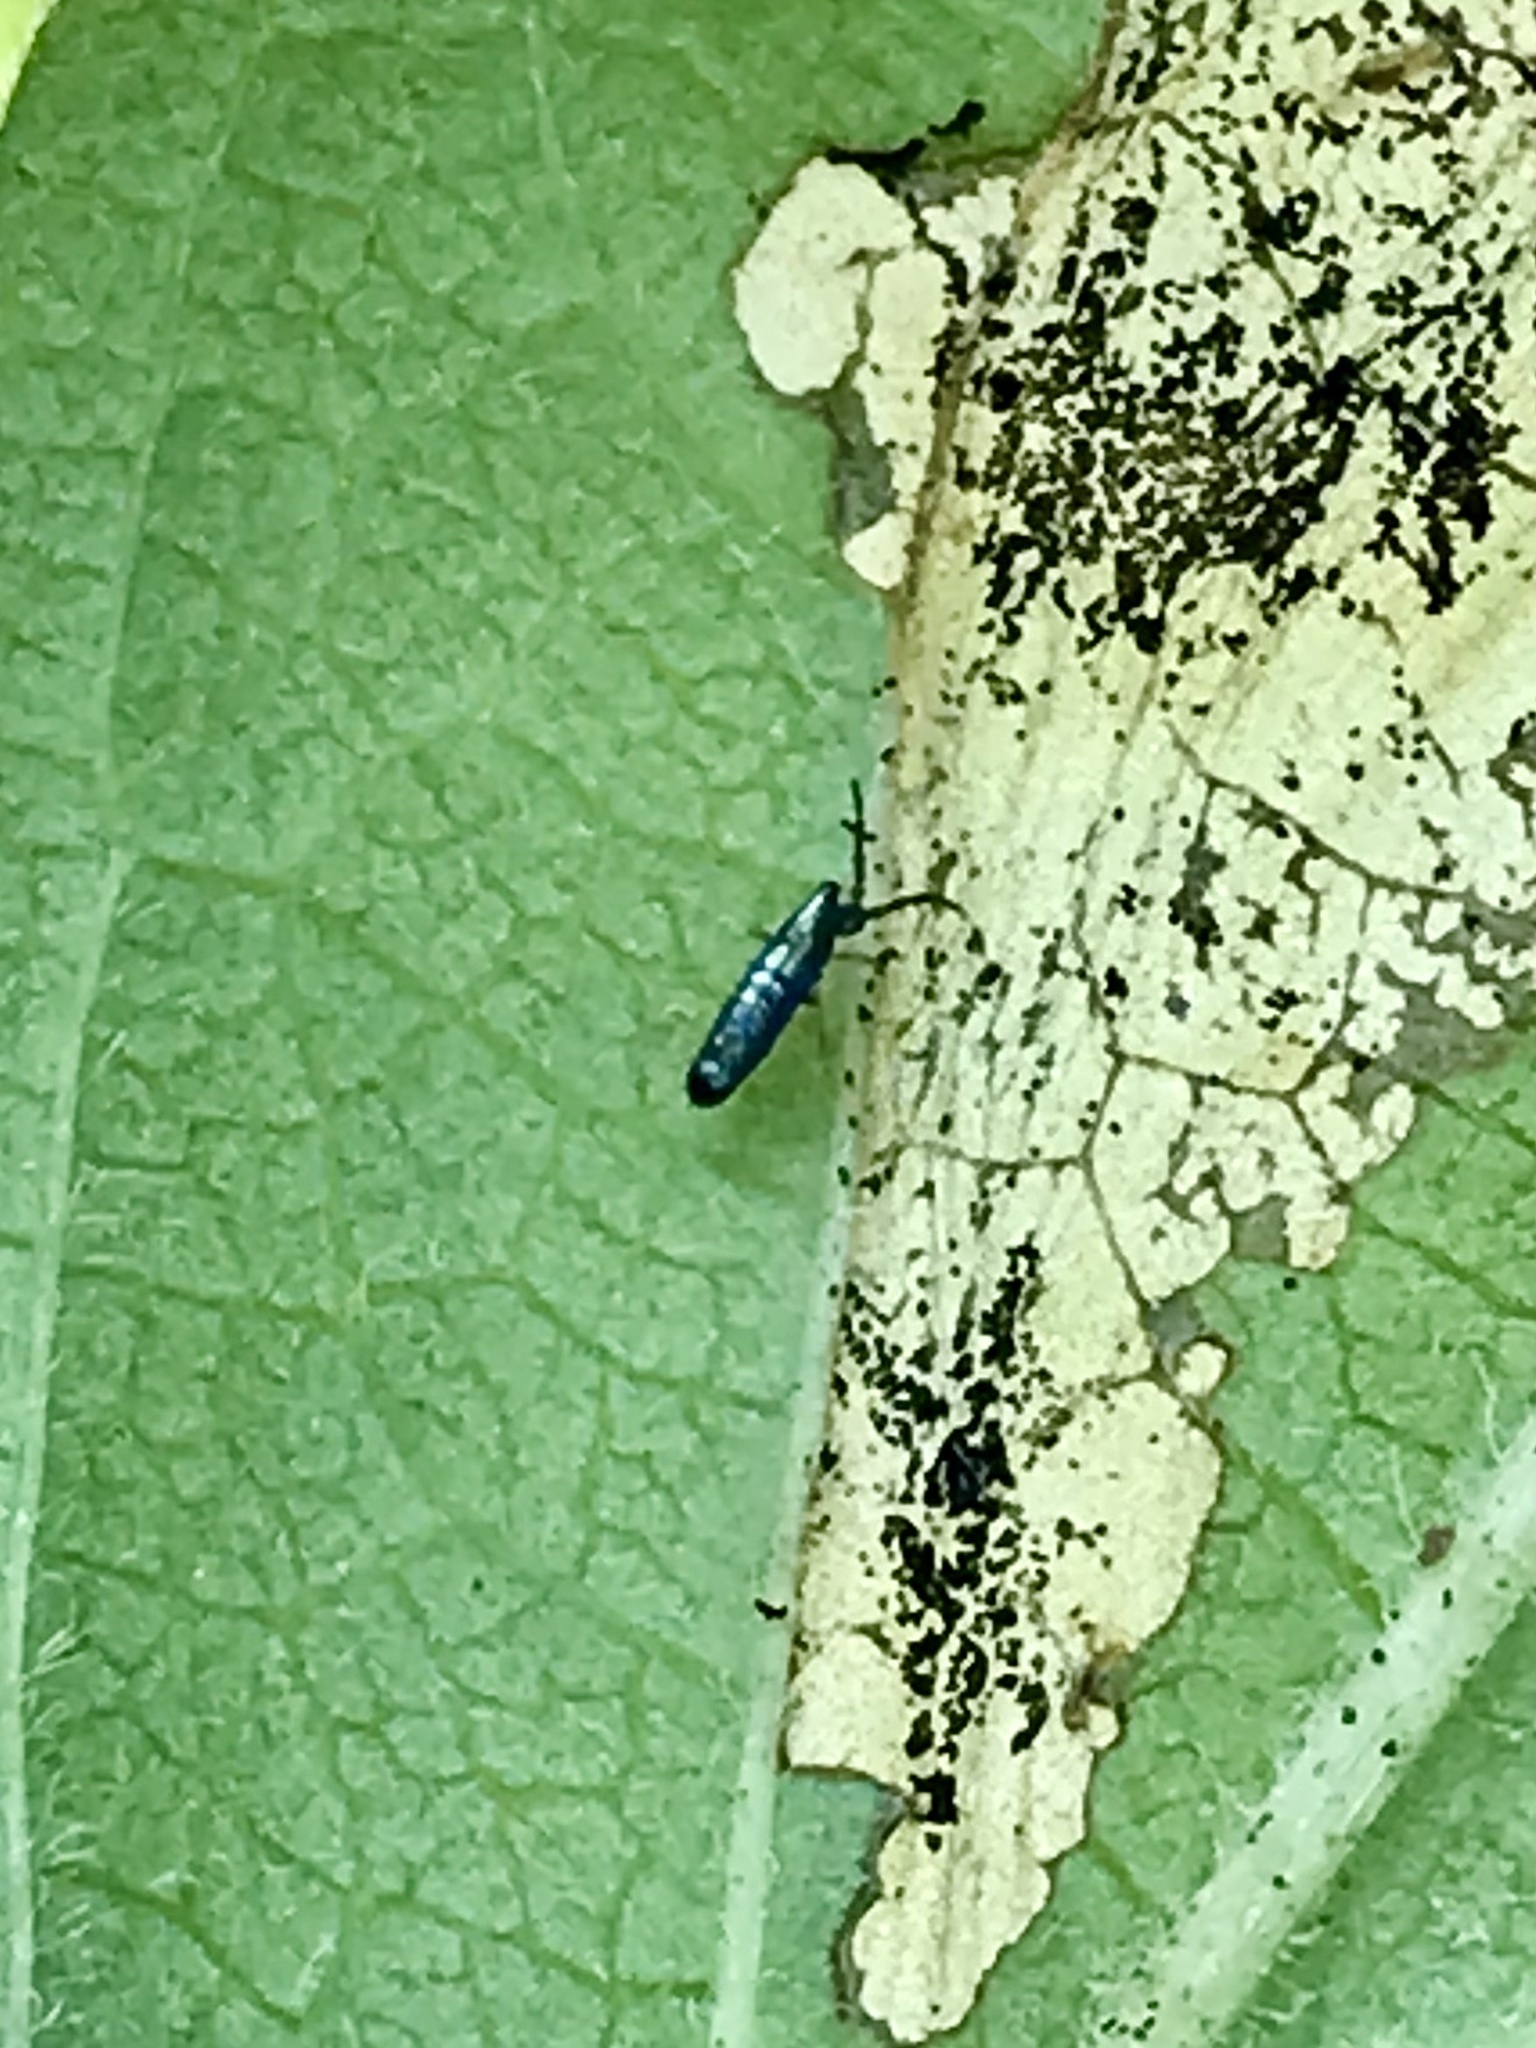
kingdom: Animalia
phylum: Arthropoda
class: Collembola
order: Entomobryomorpha
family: Entomobryidae
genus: Lepidocyrtus
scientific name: Lepidocyrtus paradoxus
